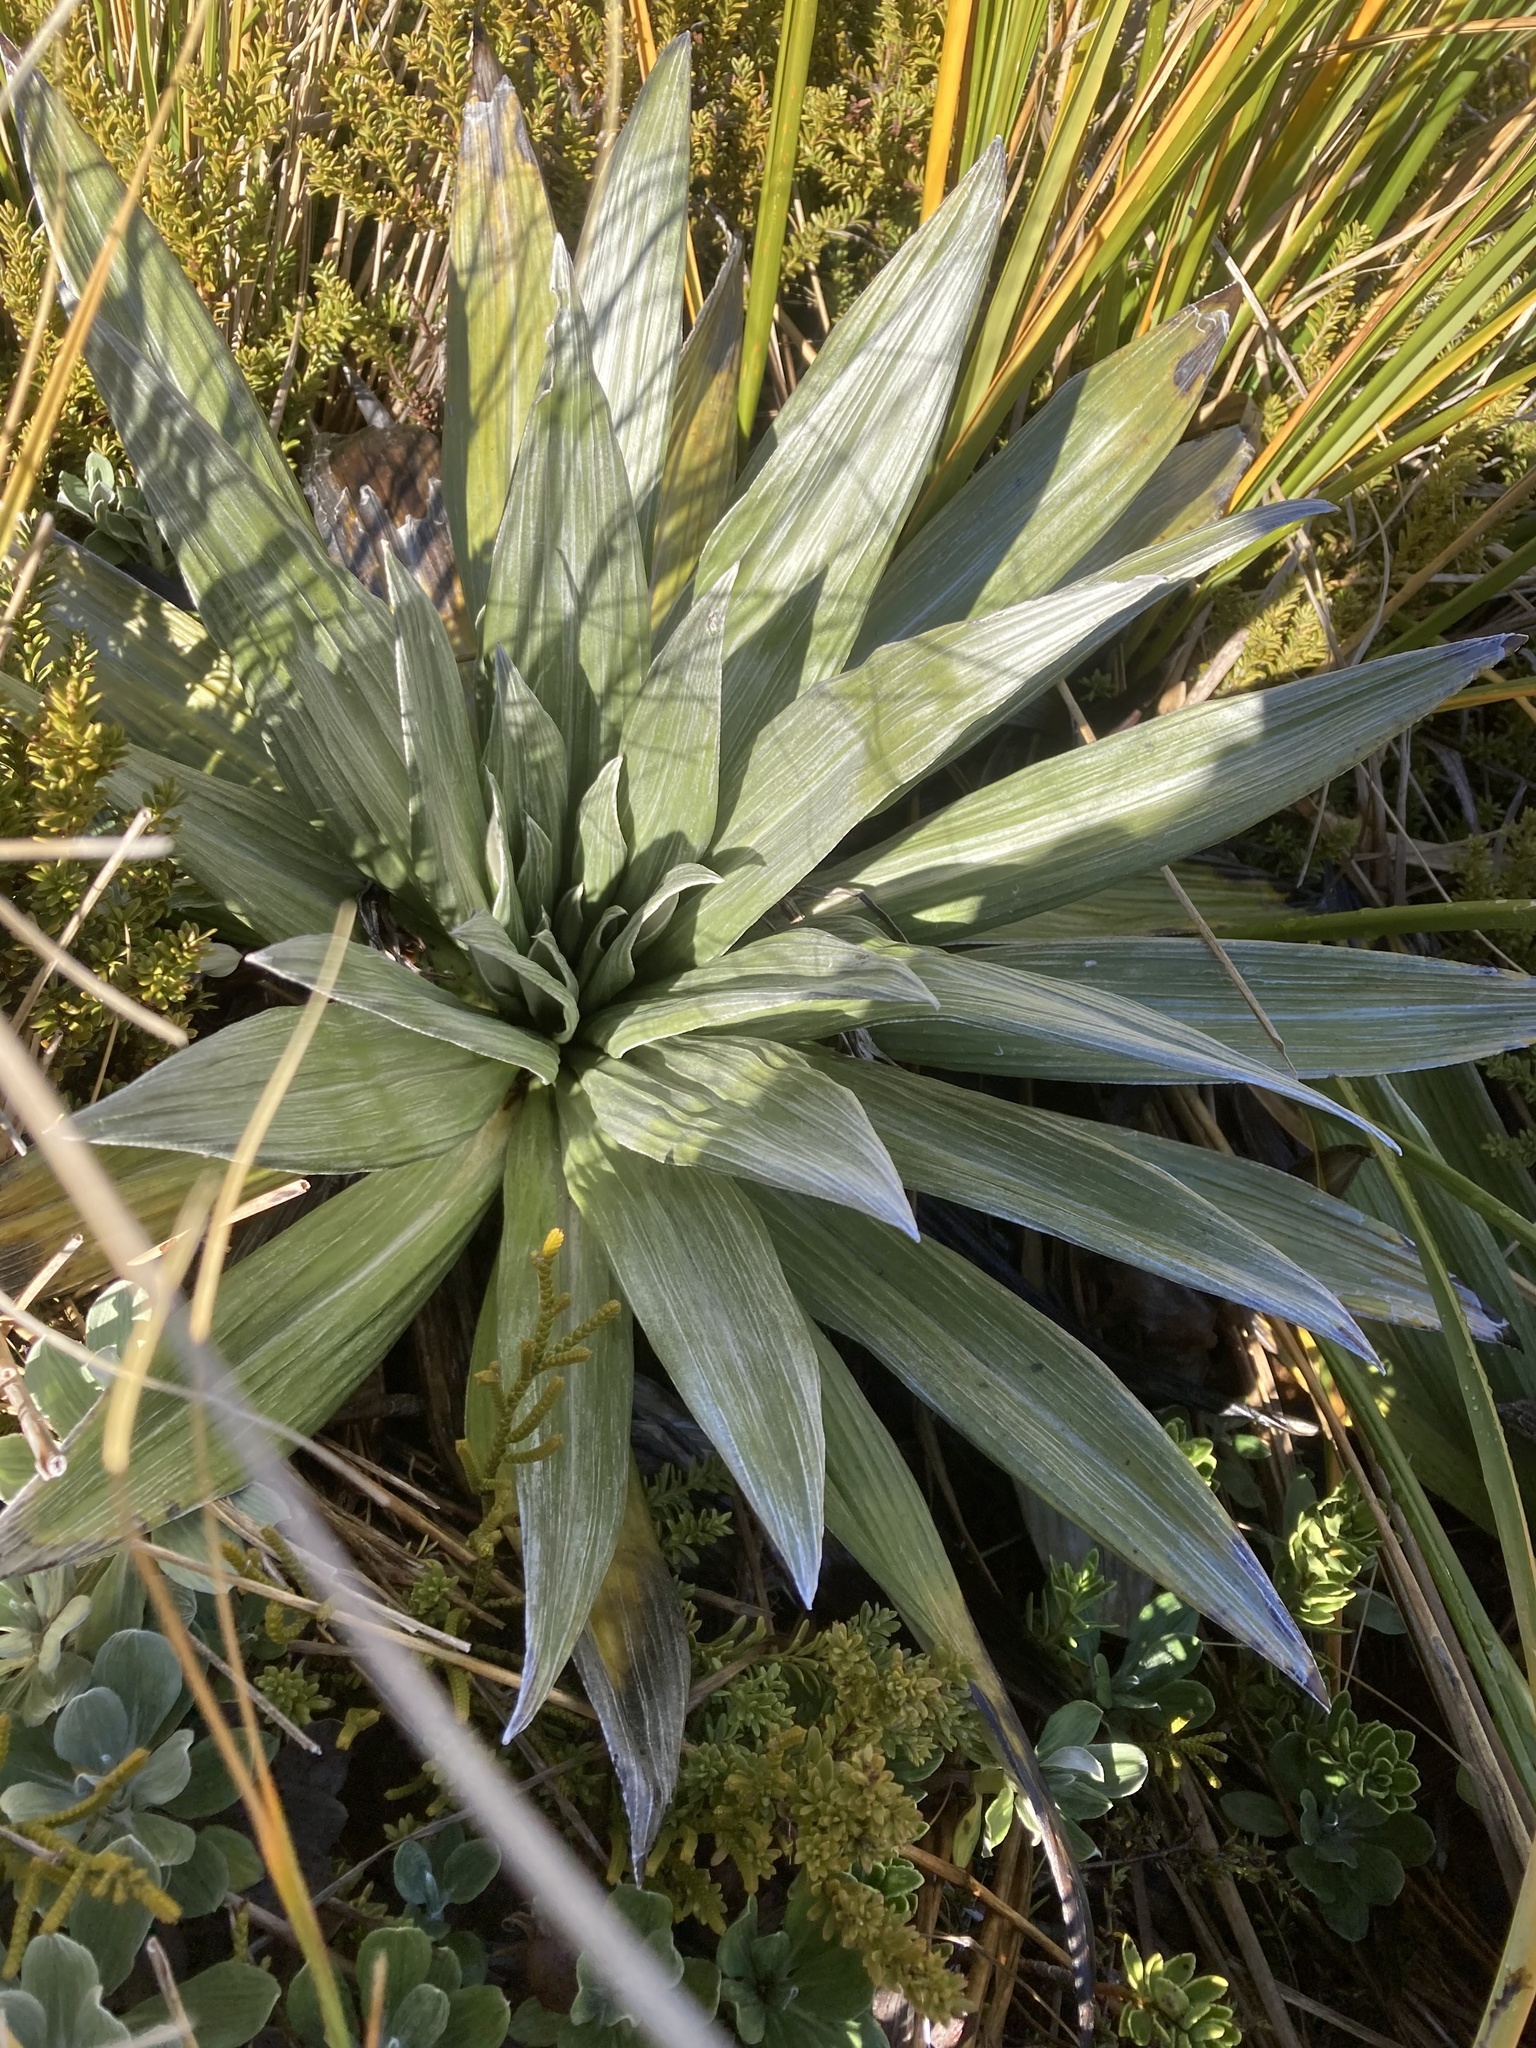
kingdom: Plantae
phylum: Tracheophyta
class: Magnoliopsida
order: Asterales
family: Asteraceae
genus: Celmisia
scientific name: Celmisia semicordata
